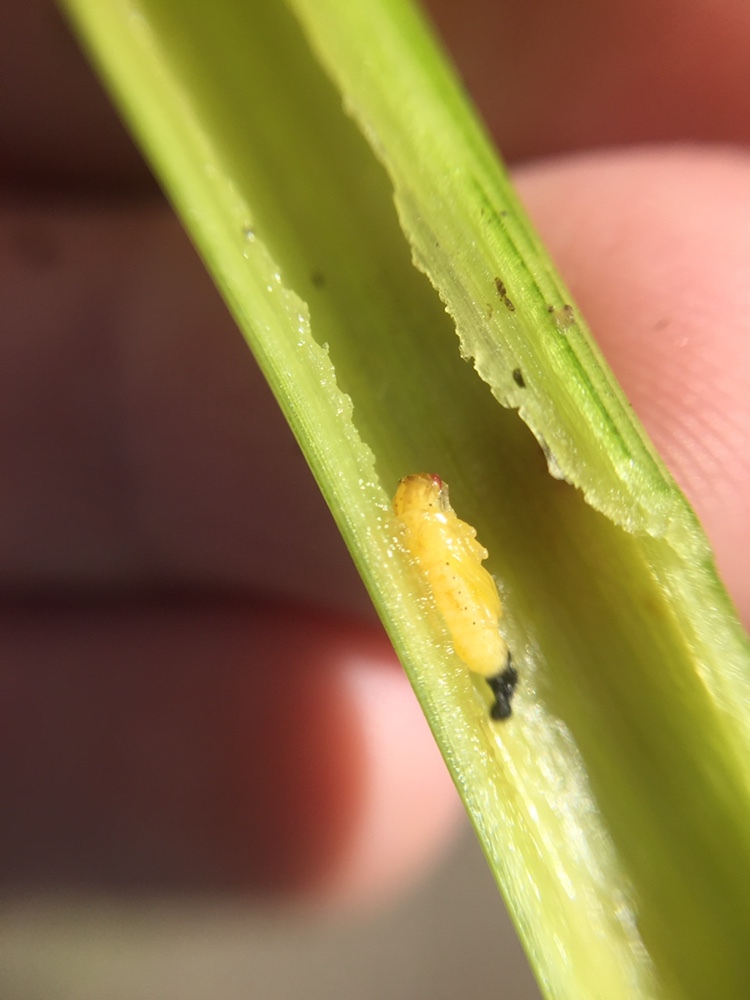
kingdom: Animalia
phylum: Arthropoda
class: Insecta
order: Coleoptera
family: Chrysomelidae
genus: Agasicles
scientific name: Agasicles hygrophila
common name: Alligatorweed flea beetle
